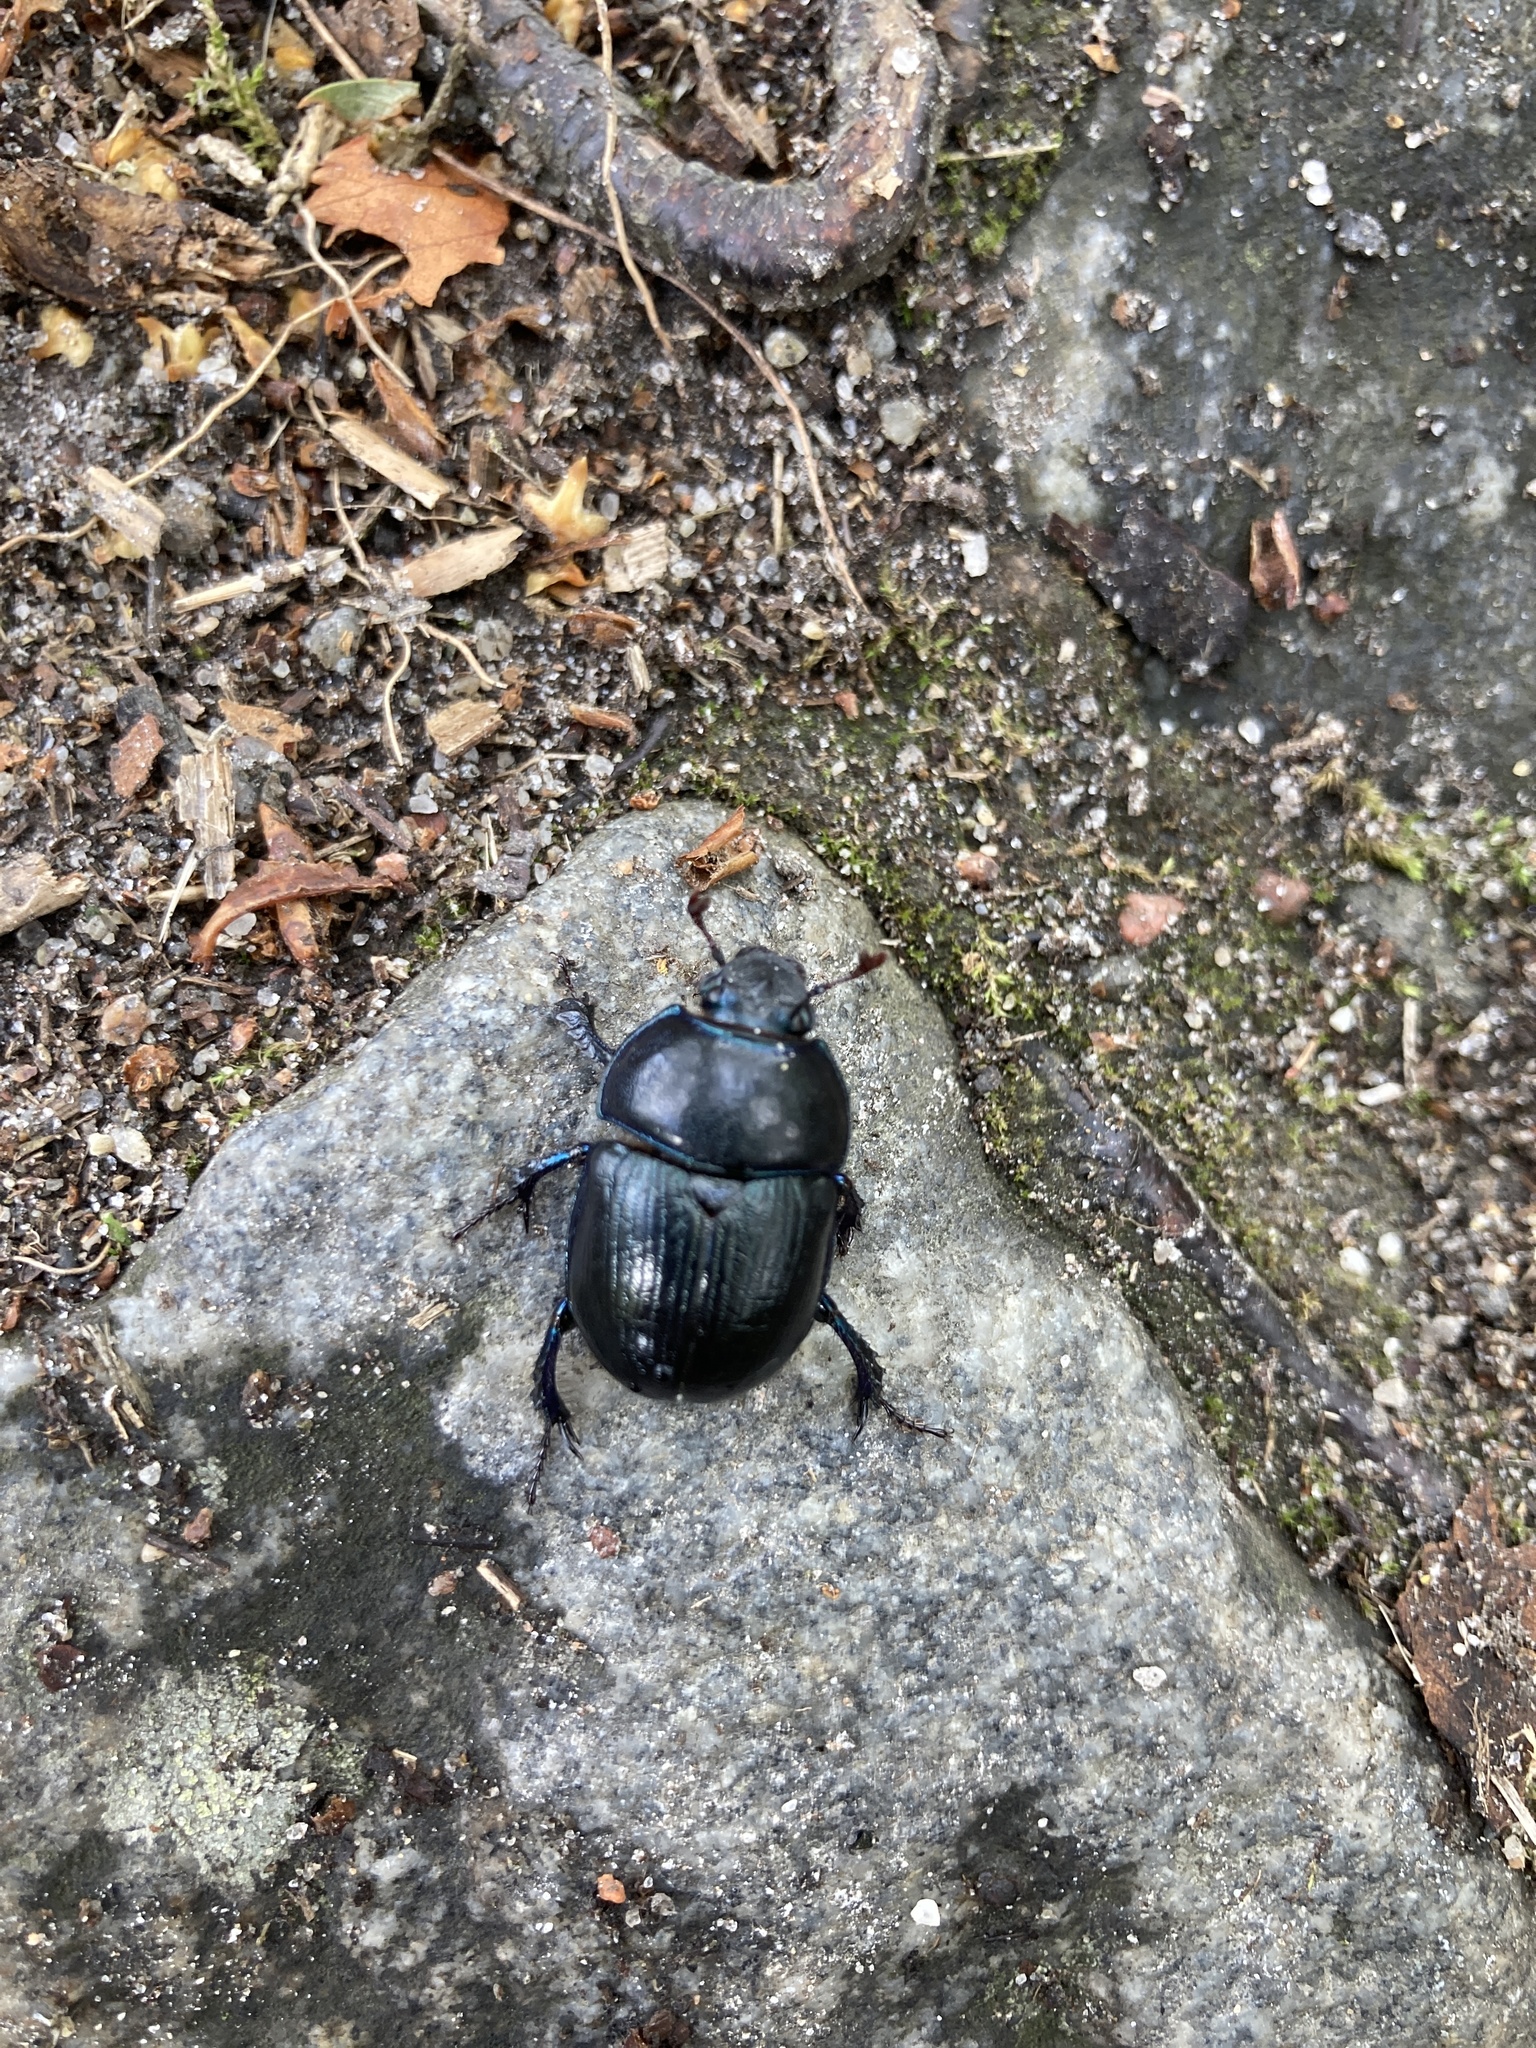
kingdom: Animalia
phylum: Arthropoda
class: Insecta
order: Coleoptera
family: Geotrupidae
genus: Anoplotrupes
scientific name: Anoplotrupes stercorosus
